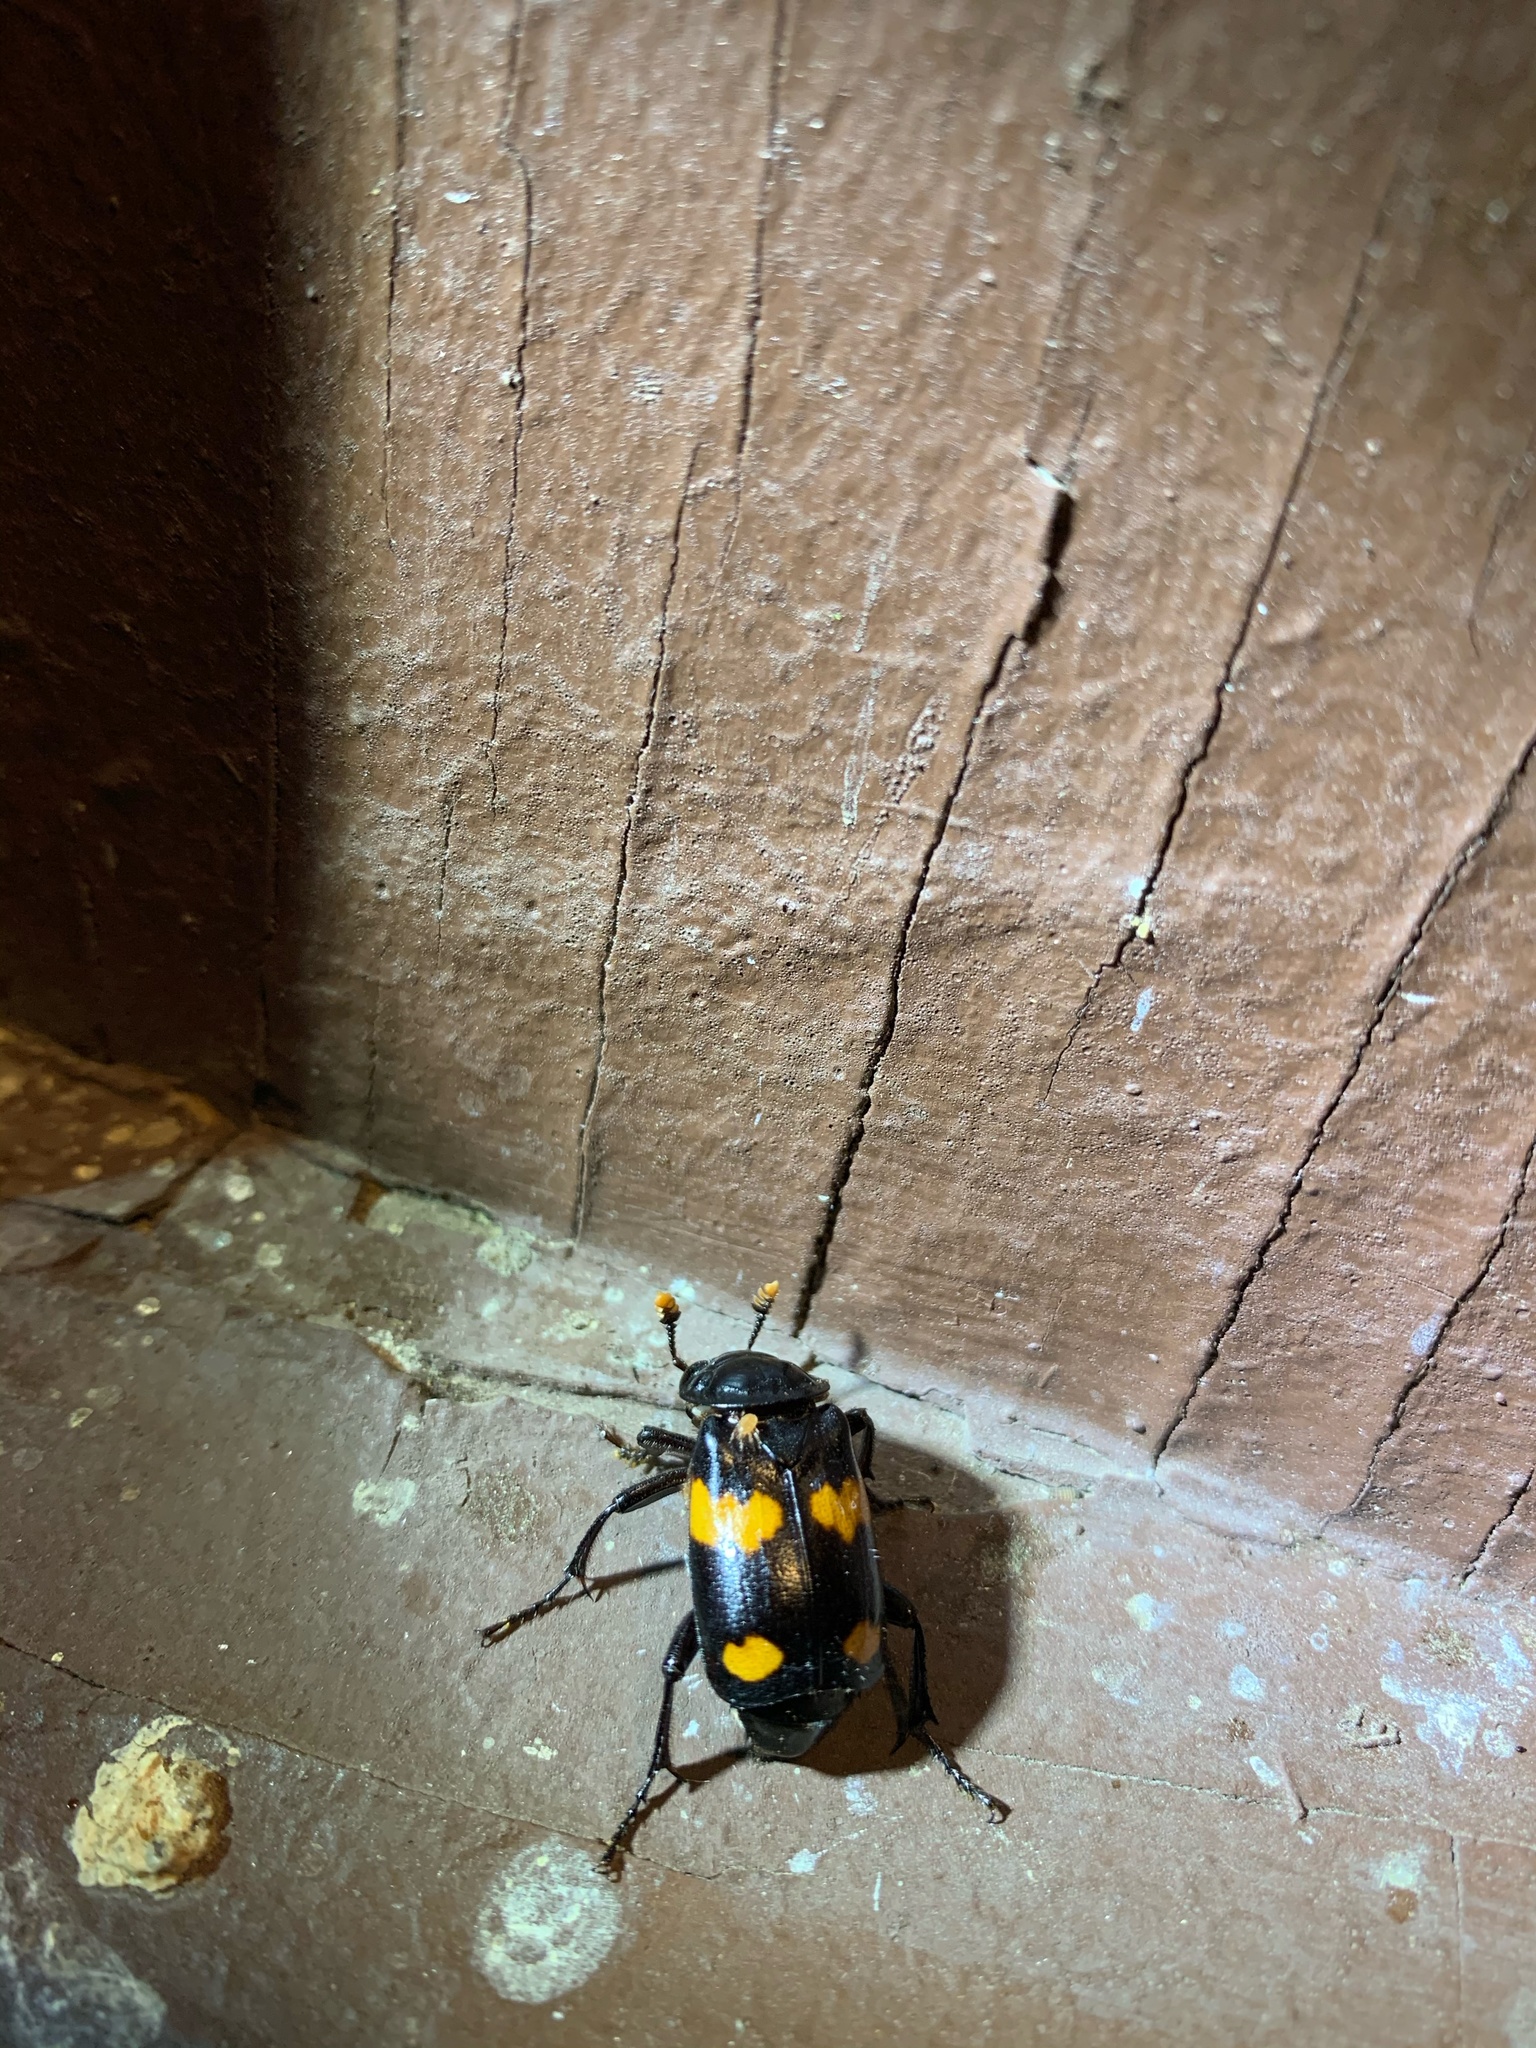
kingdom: Animalia
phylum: Arthropoda
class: Insecta
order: Coleoptera
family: Staphylinidae
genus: Nicrophorus
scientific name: Nicrophorus orbicollis
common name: Roundneck sexton beetle
